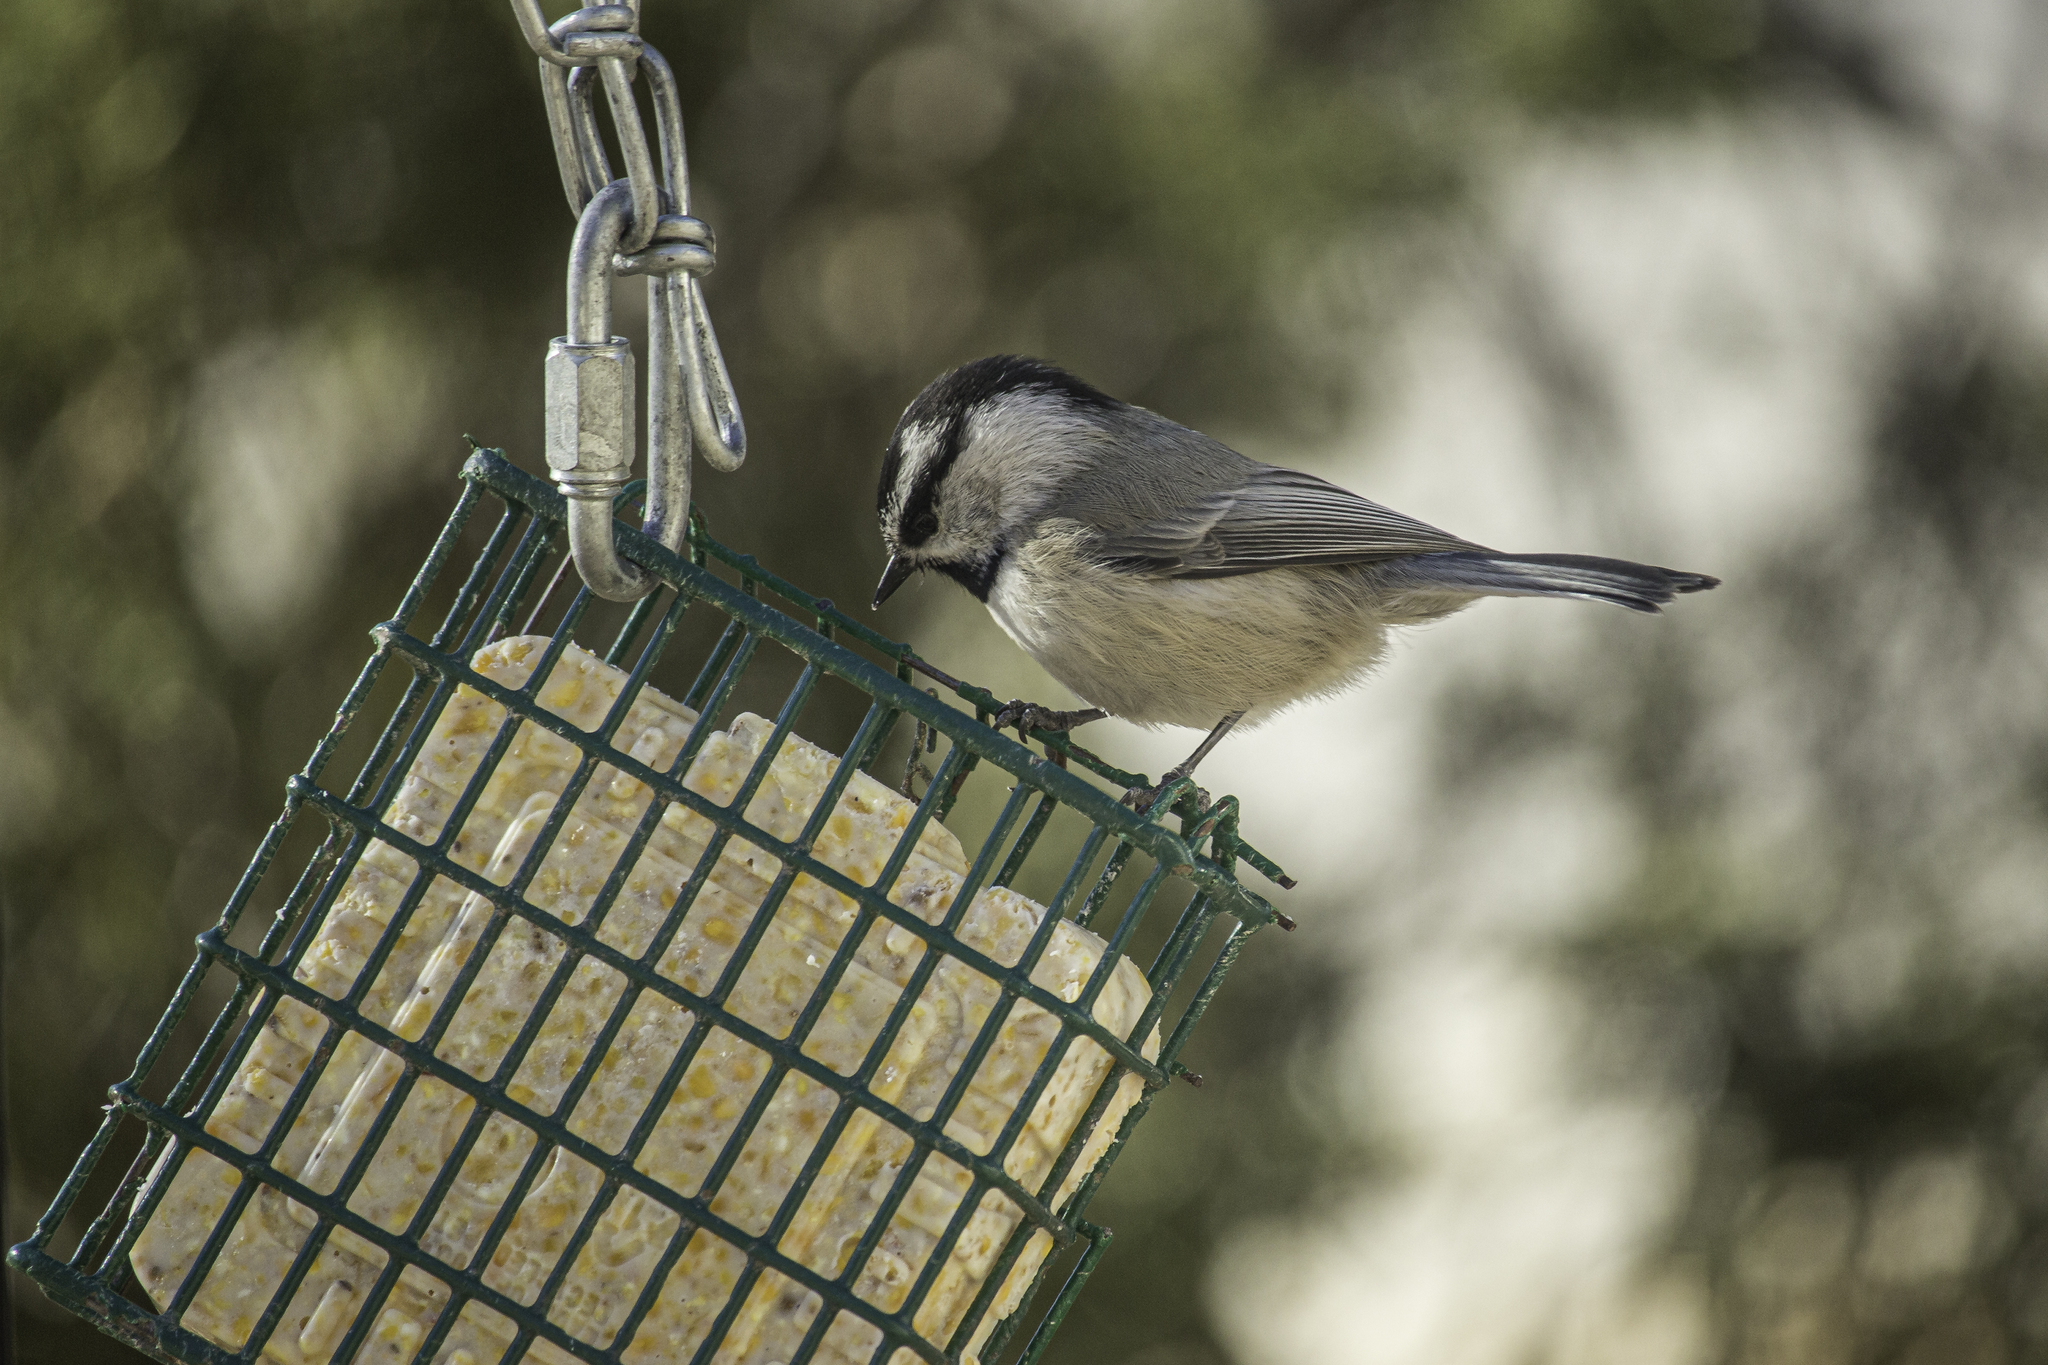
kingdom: Animalia
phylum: Chordata
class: Aves
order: Passeriformes
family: Paridae
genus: Poecile
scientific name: Poecile gambeli
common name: Mountain chickadee
